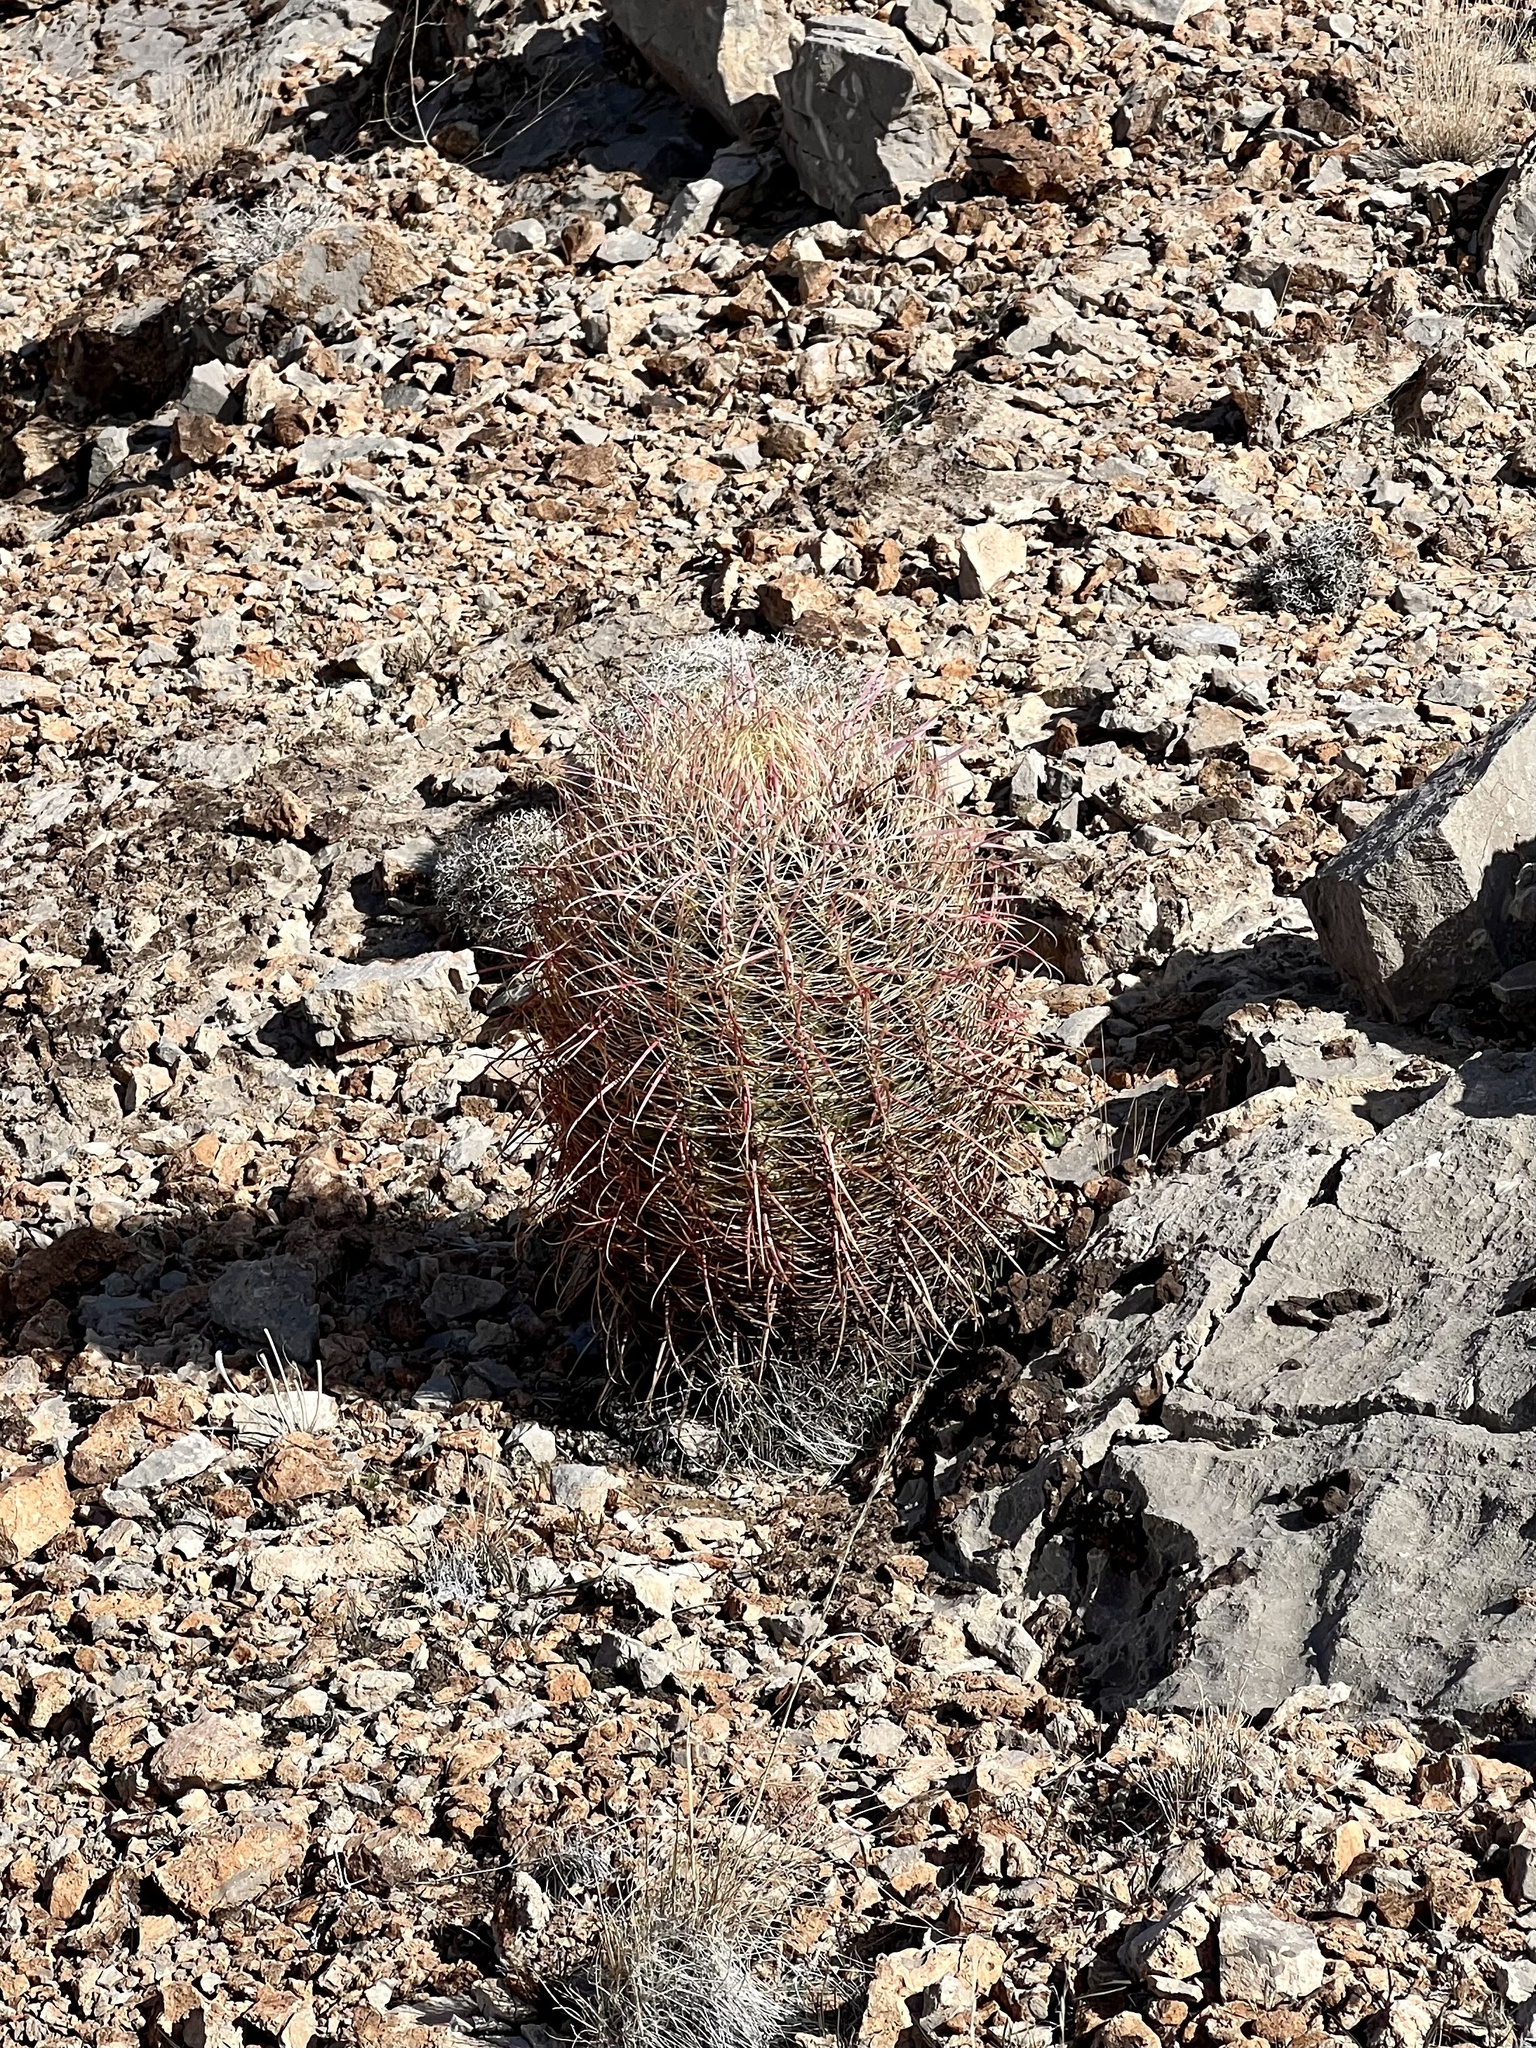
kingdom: Plantae
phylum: Tracheophyta
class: Magnoliopsida
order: Caryophyllales
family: Cactaceae
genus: Ferocactus
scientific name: Ferocactus cylindraceus
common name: California barrel cactus
